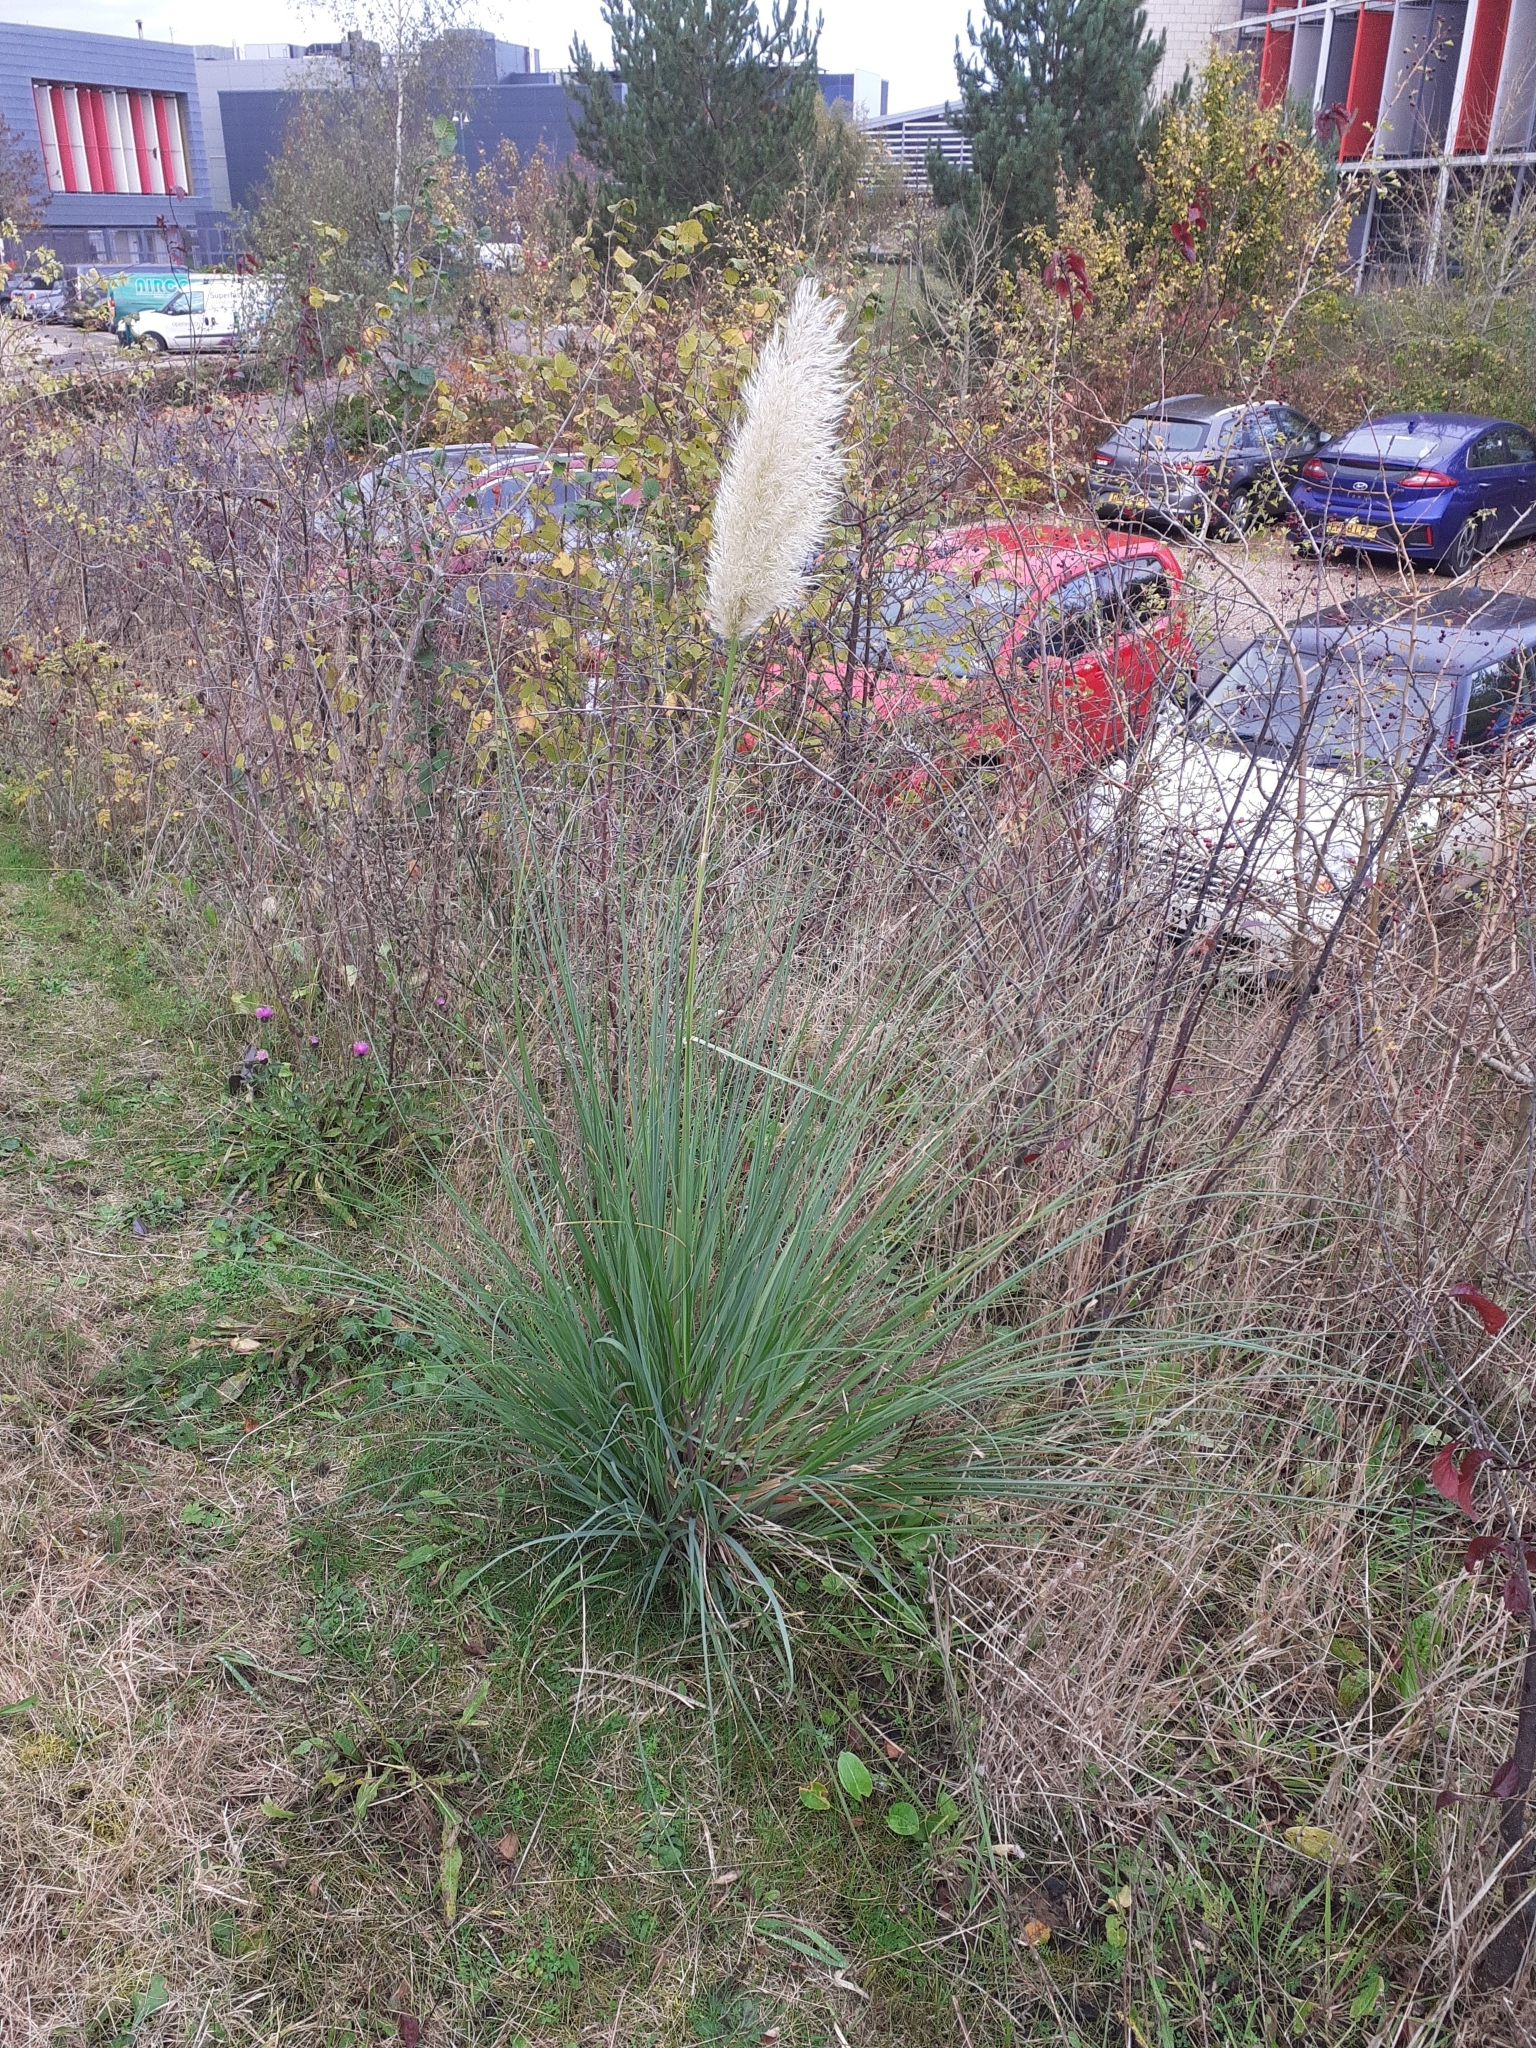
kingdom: Plantae
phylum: Tracheophyta
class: Liliopsida
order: Poales
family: Poaceae
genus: Cortaderia
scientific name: Cortaderia selloana
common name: Uruguayan pampas grass
